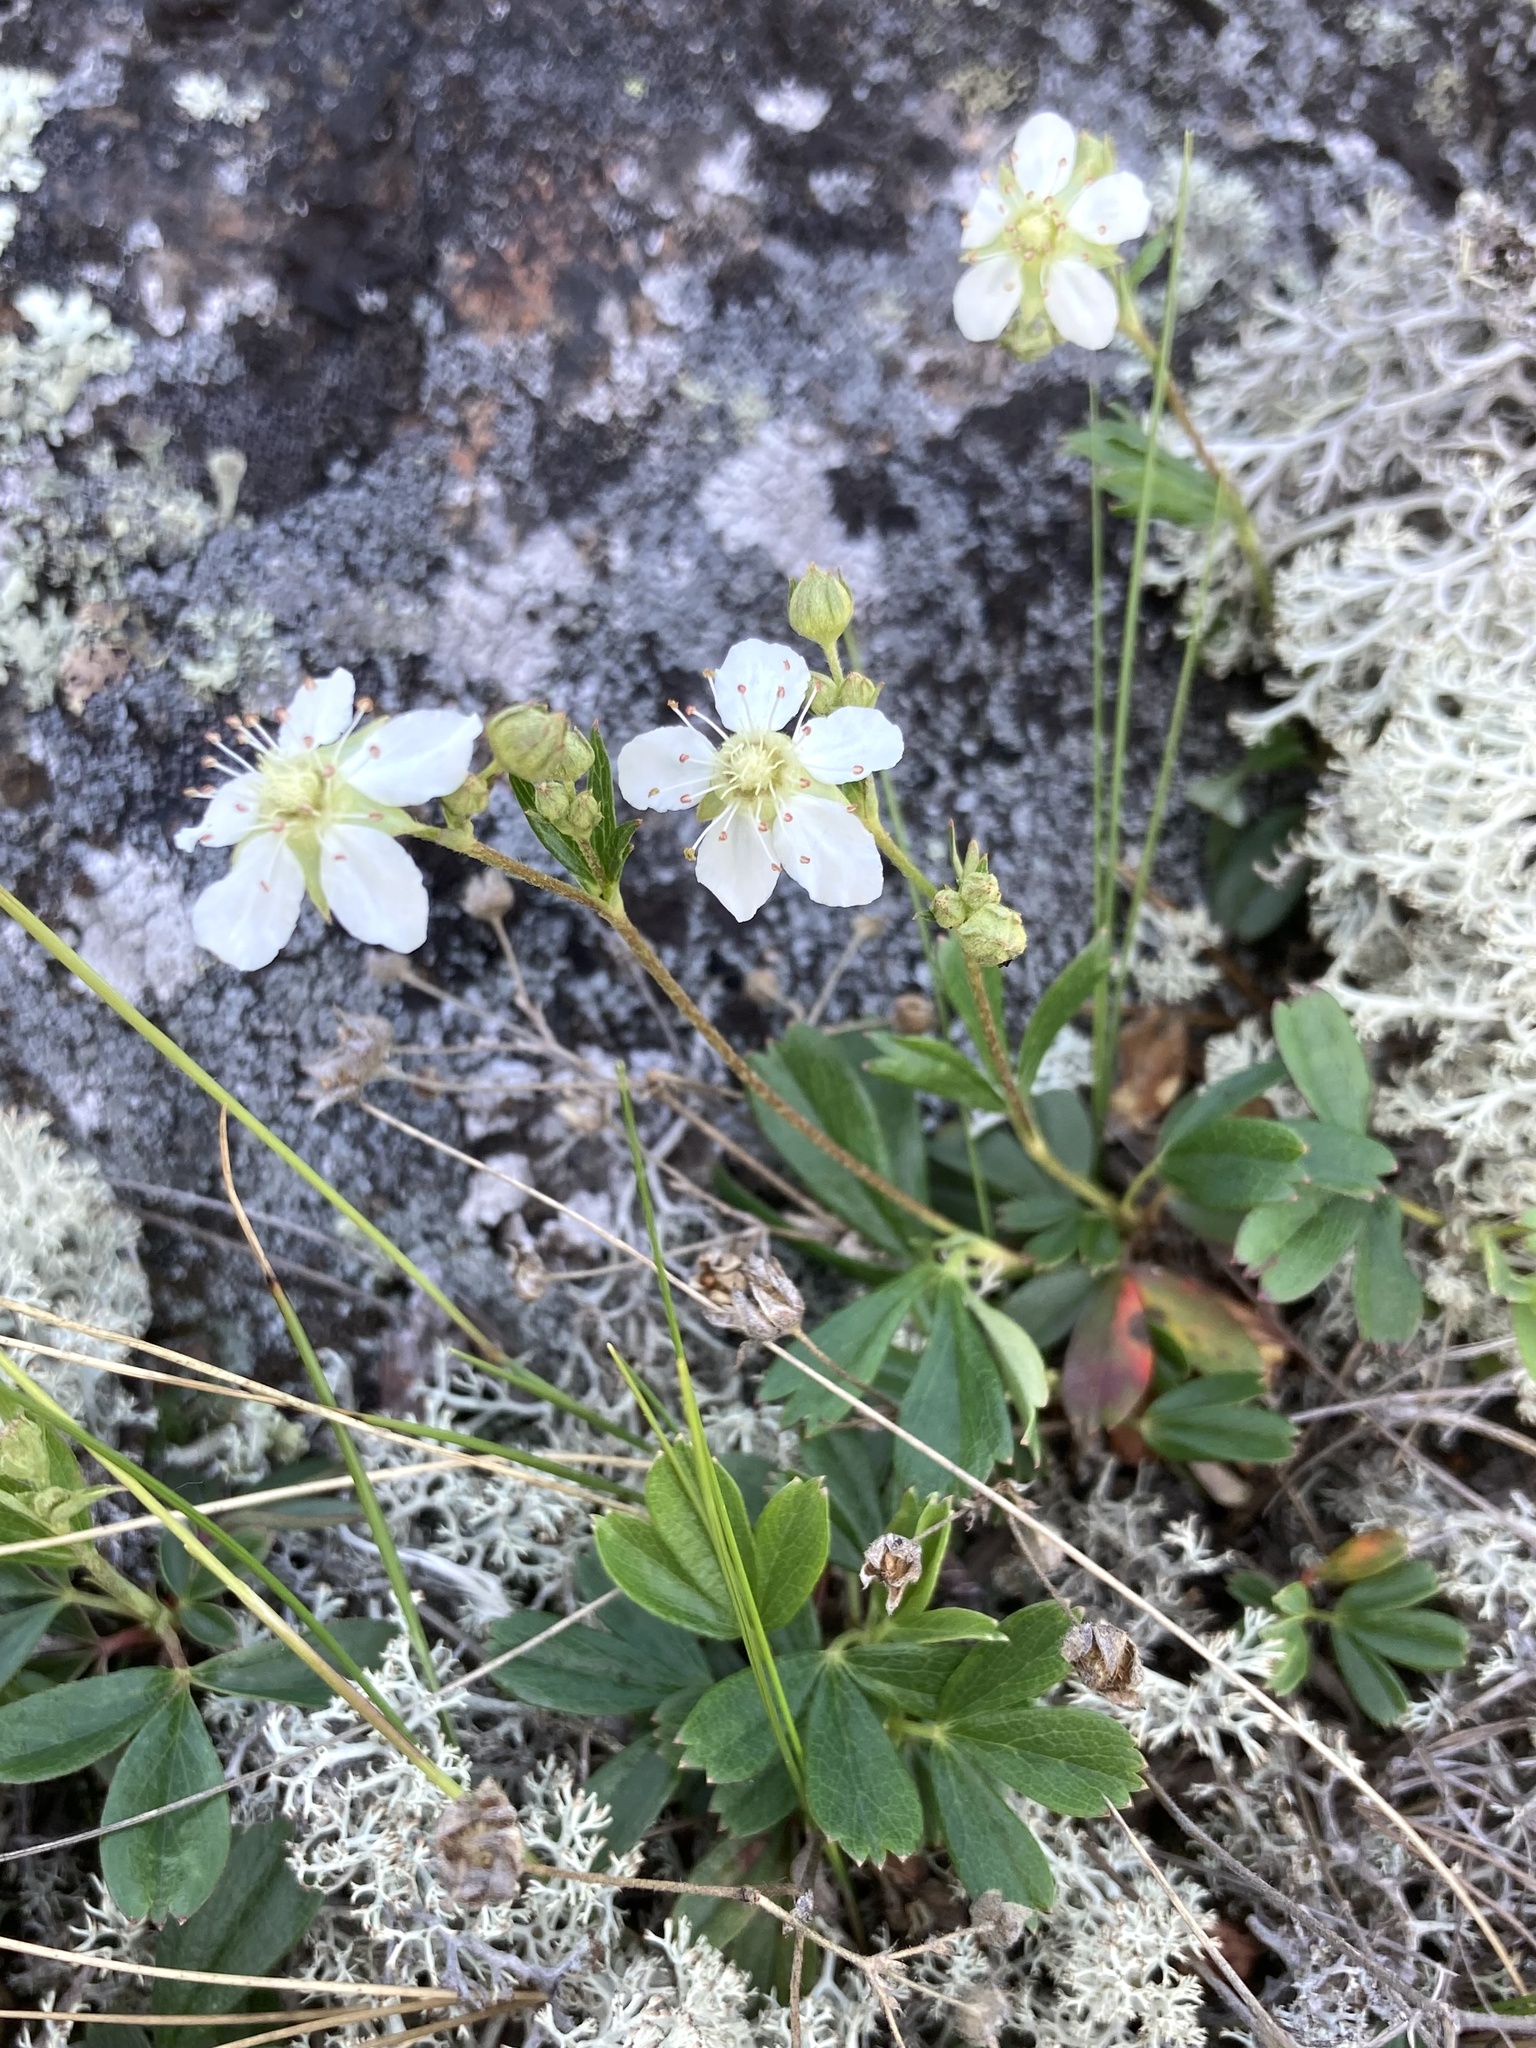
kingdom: Plantae
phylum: Tracheophyta
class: Magnoliopsida
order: Rosales
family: Rosaceae
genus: Sibbaldia
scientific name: Sibbaldia tridentata
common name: Three-toothed cinquefoil
